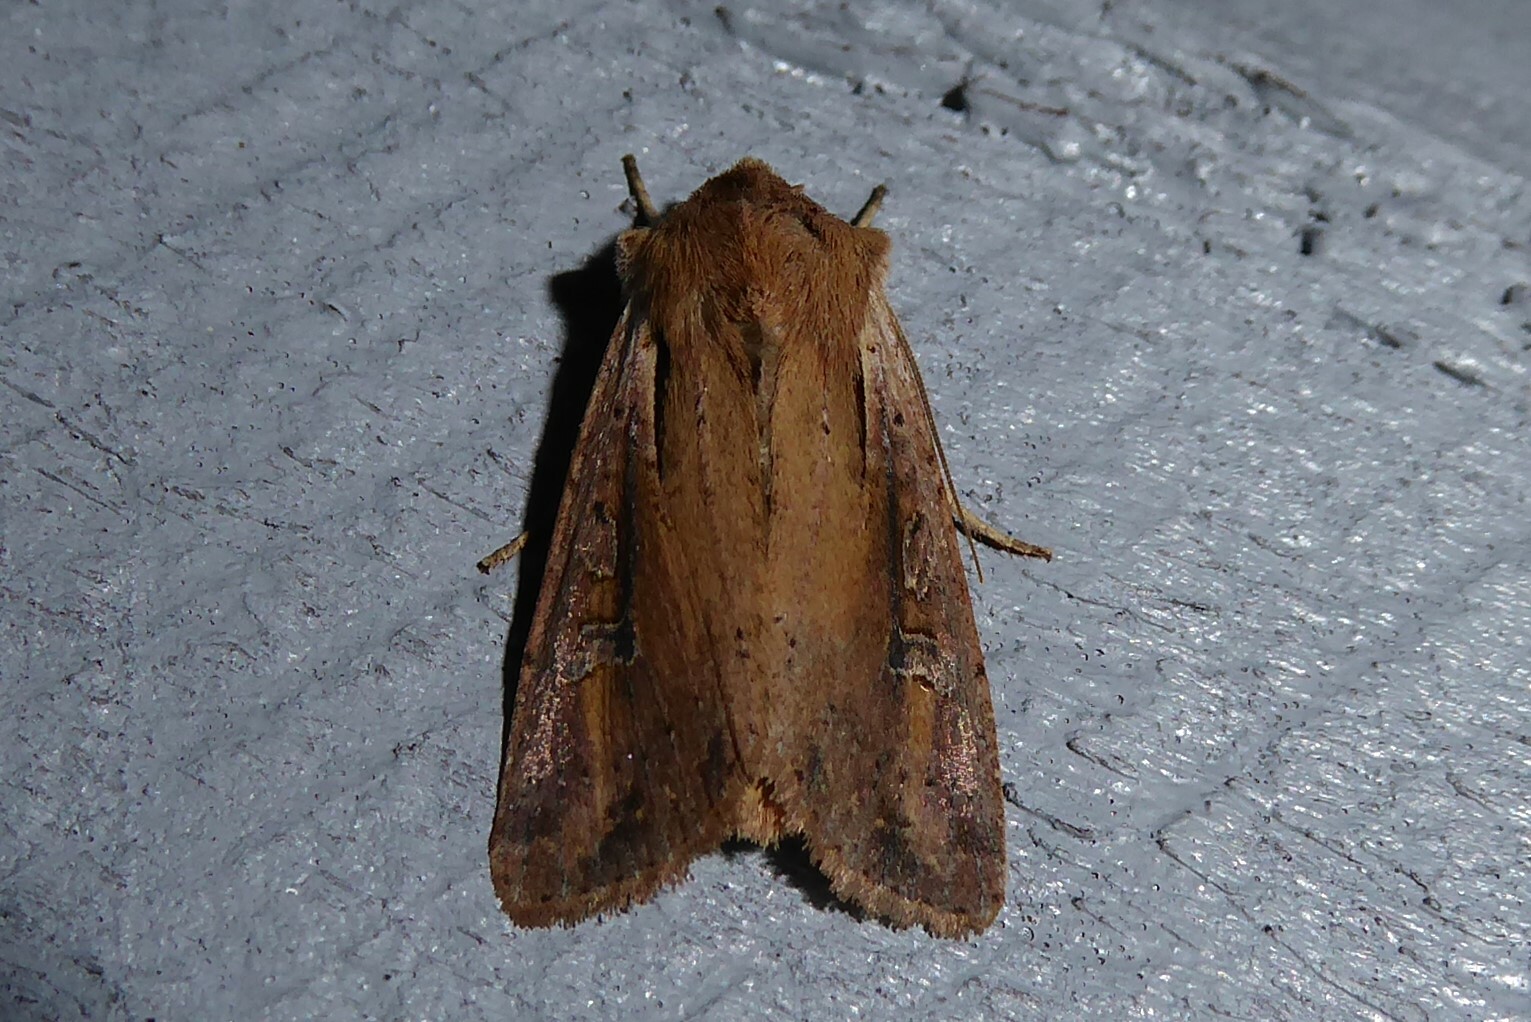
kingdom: Animalia
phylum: Arthropoda
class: Insecta
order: Lepidoptera
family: Noctuidae
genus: Ichneutica
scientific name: Ichneutica atristriga
